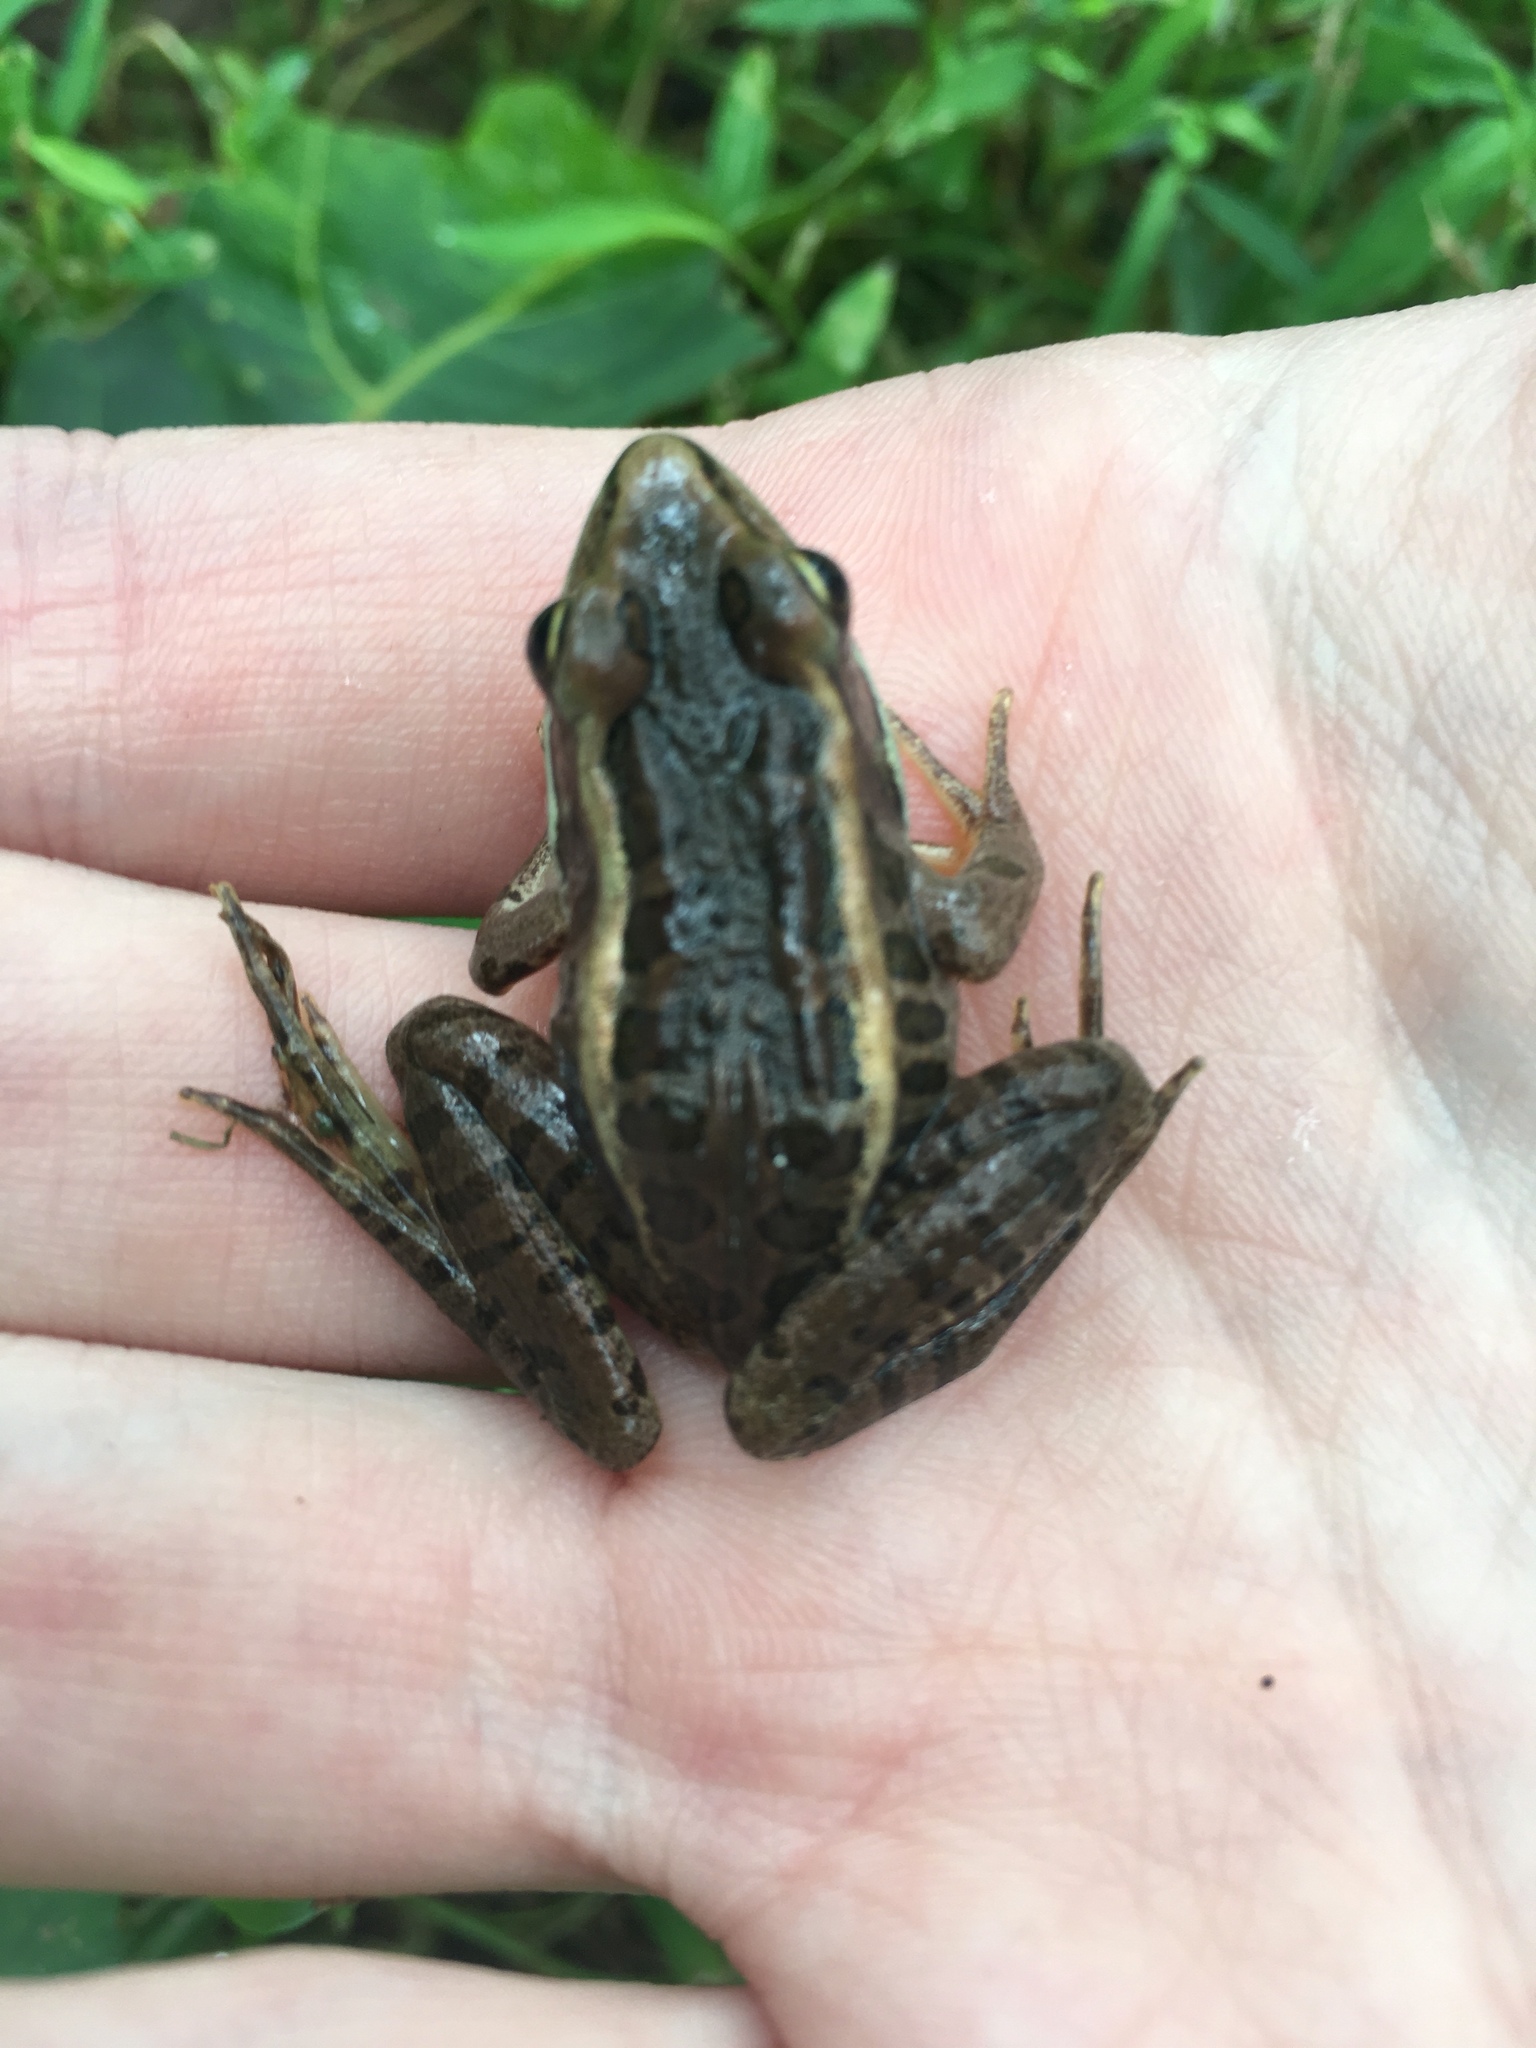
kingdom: Animalia
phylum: Chordata
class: Amphibia
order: Anura
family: Ranidae
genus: Lithobates
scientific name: Lithobates palustris
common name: Pickerel frog
